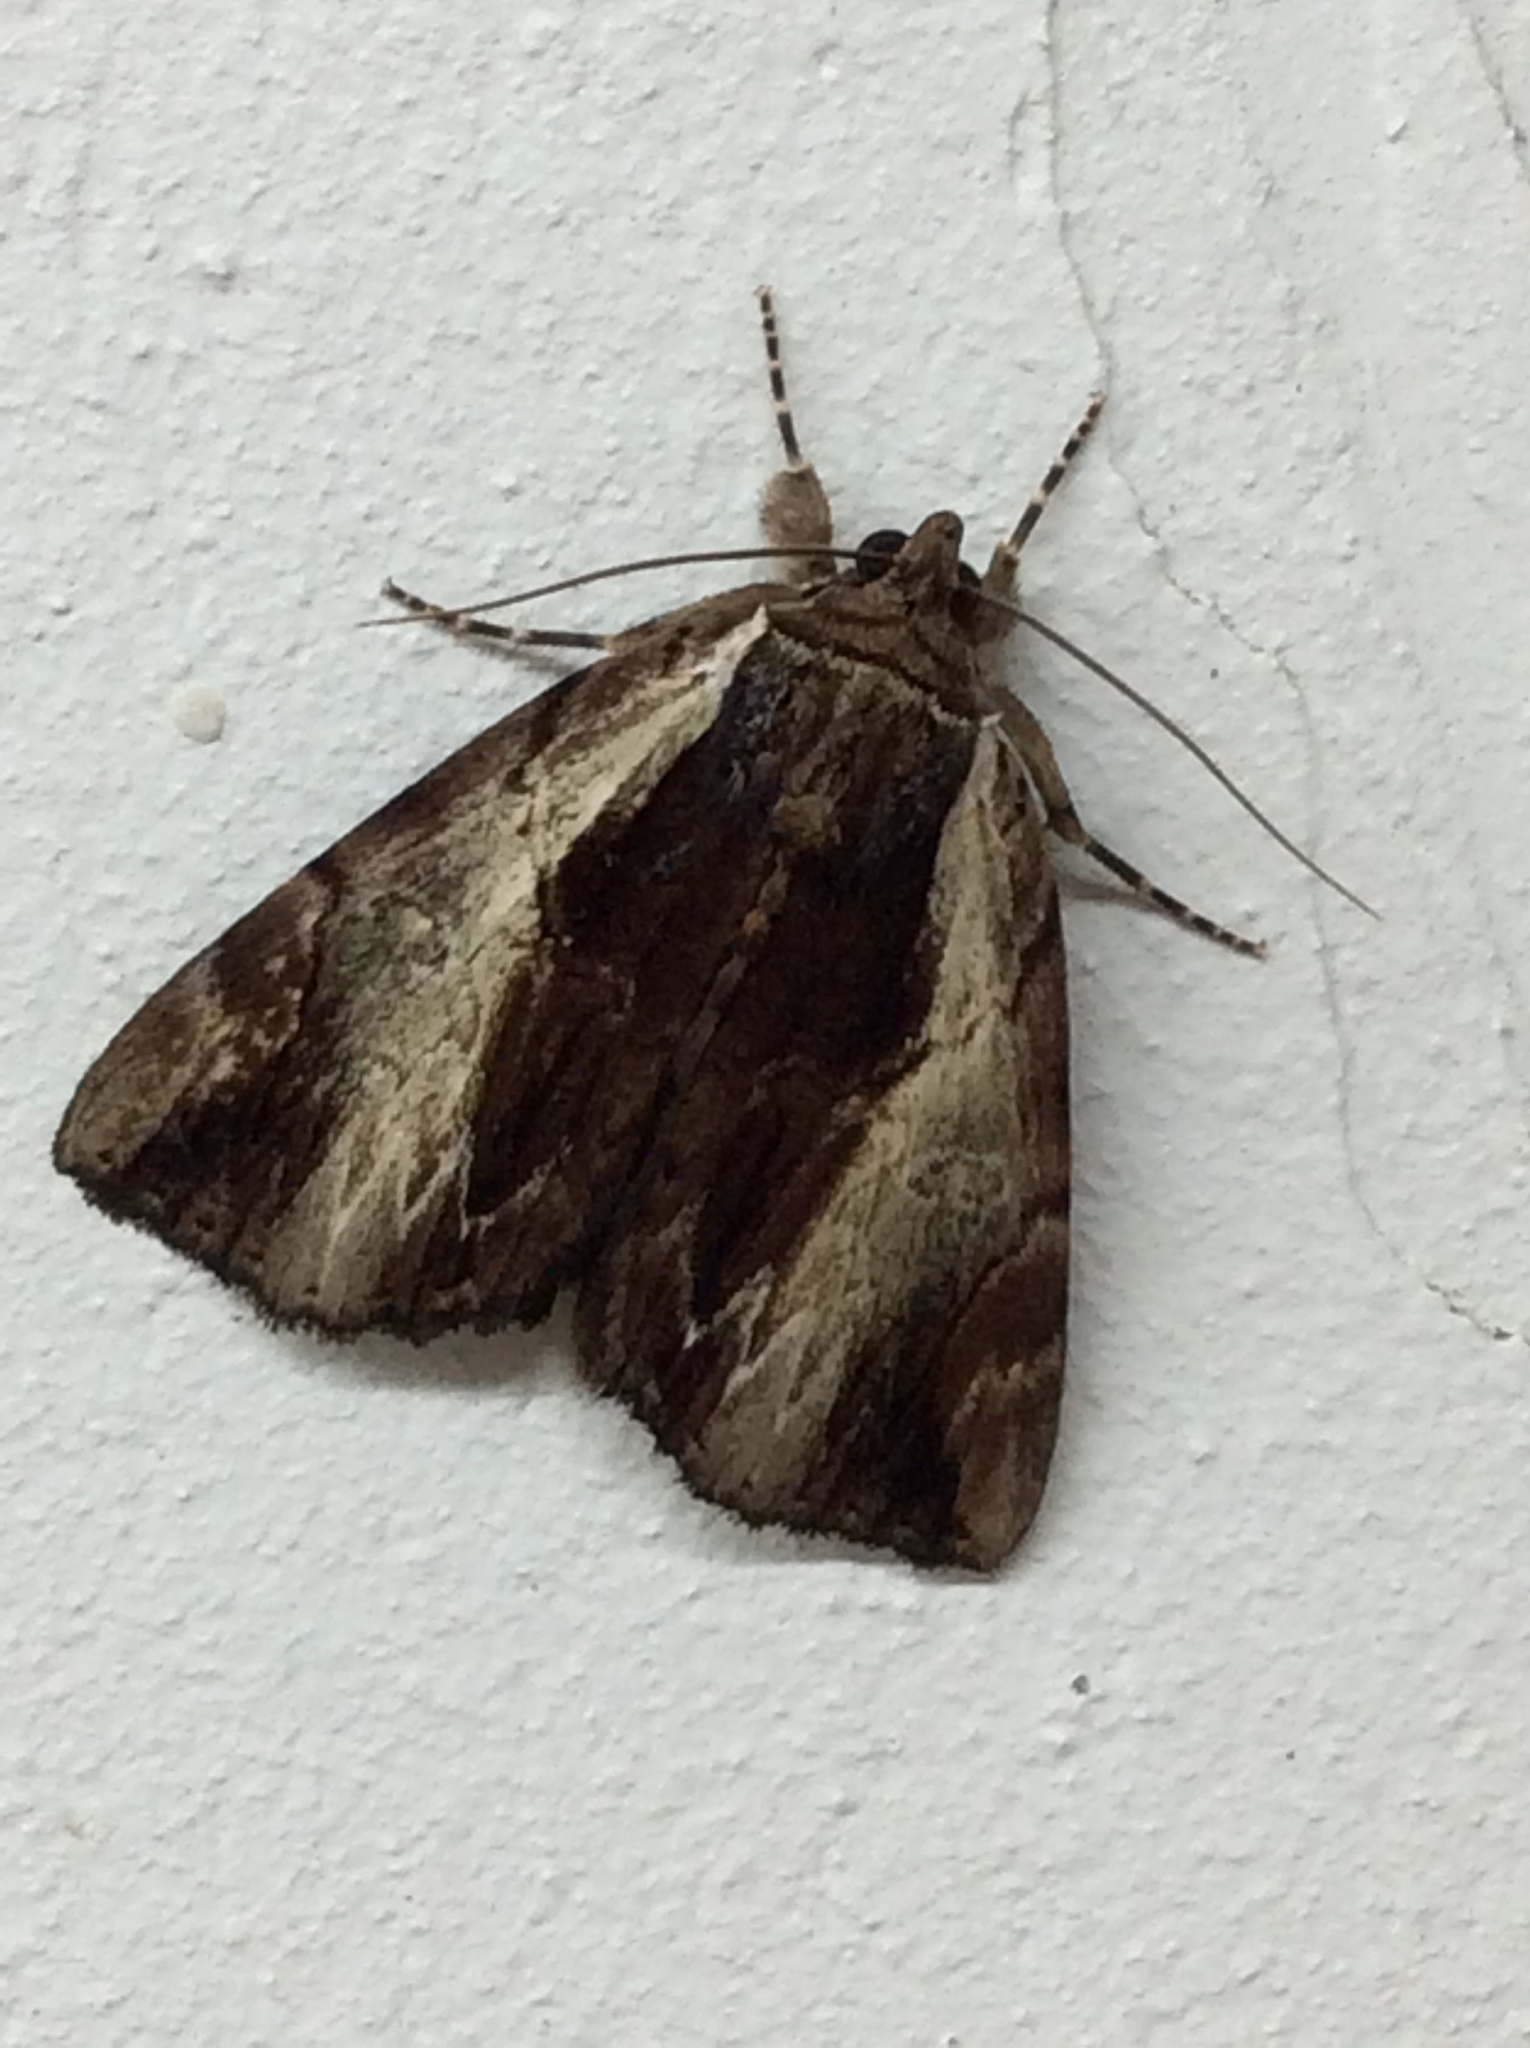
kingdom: Animalia
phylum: Arthropoda
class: Insecta
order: Lepidoptera
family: Erebidae
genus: Catocala
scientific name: Catocala ultronia
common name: Ultronia underwing
